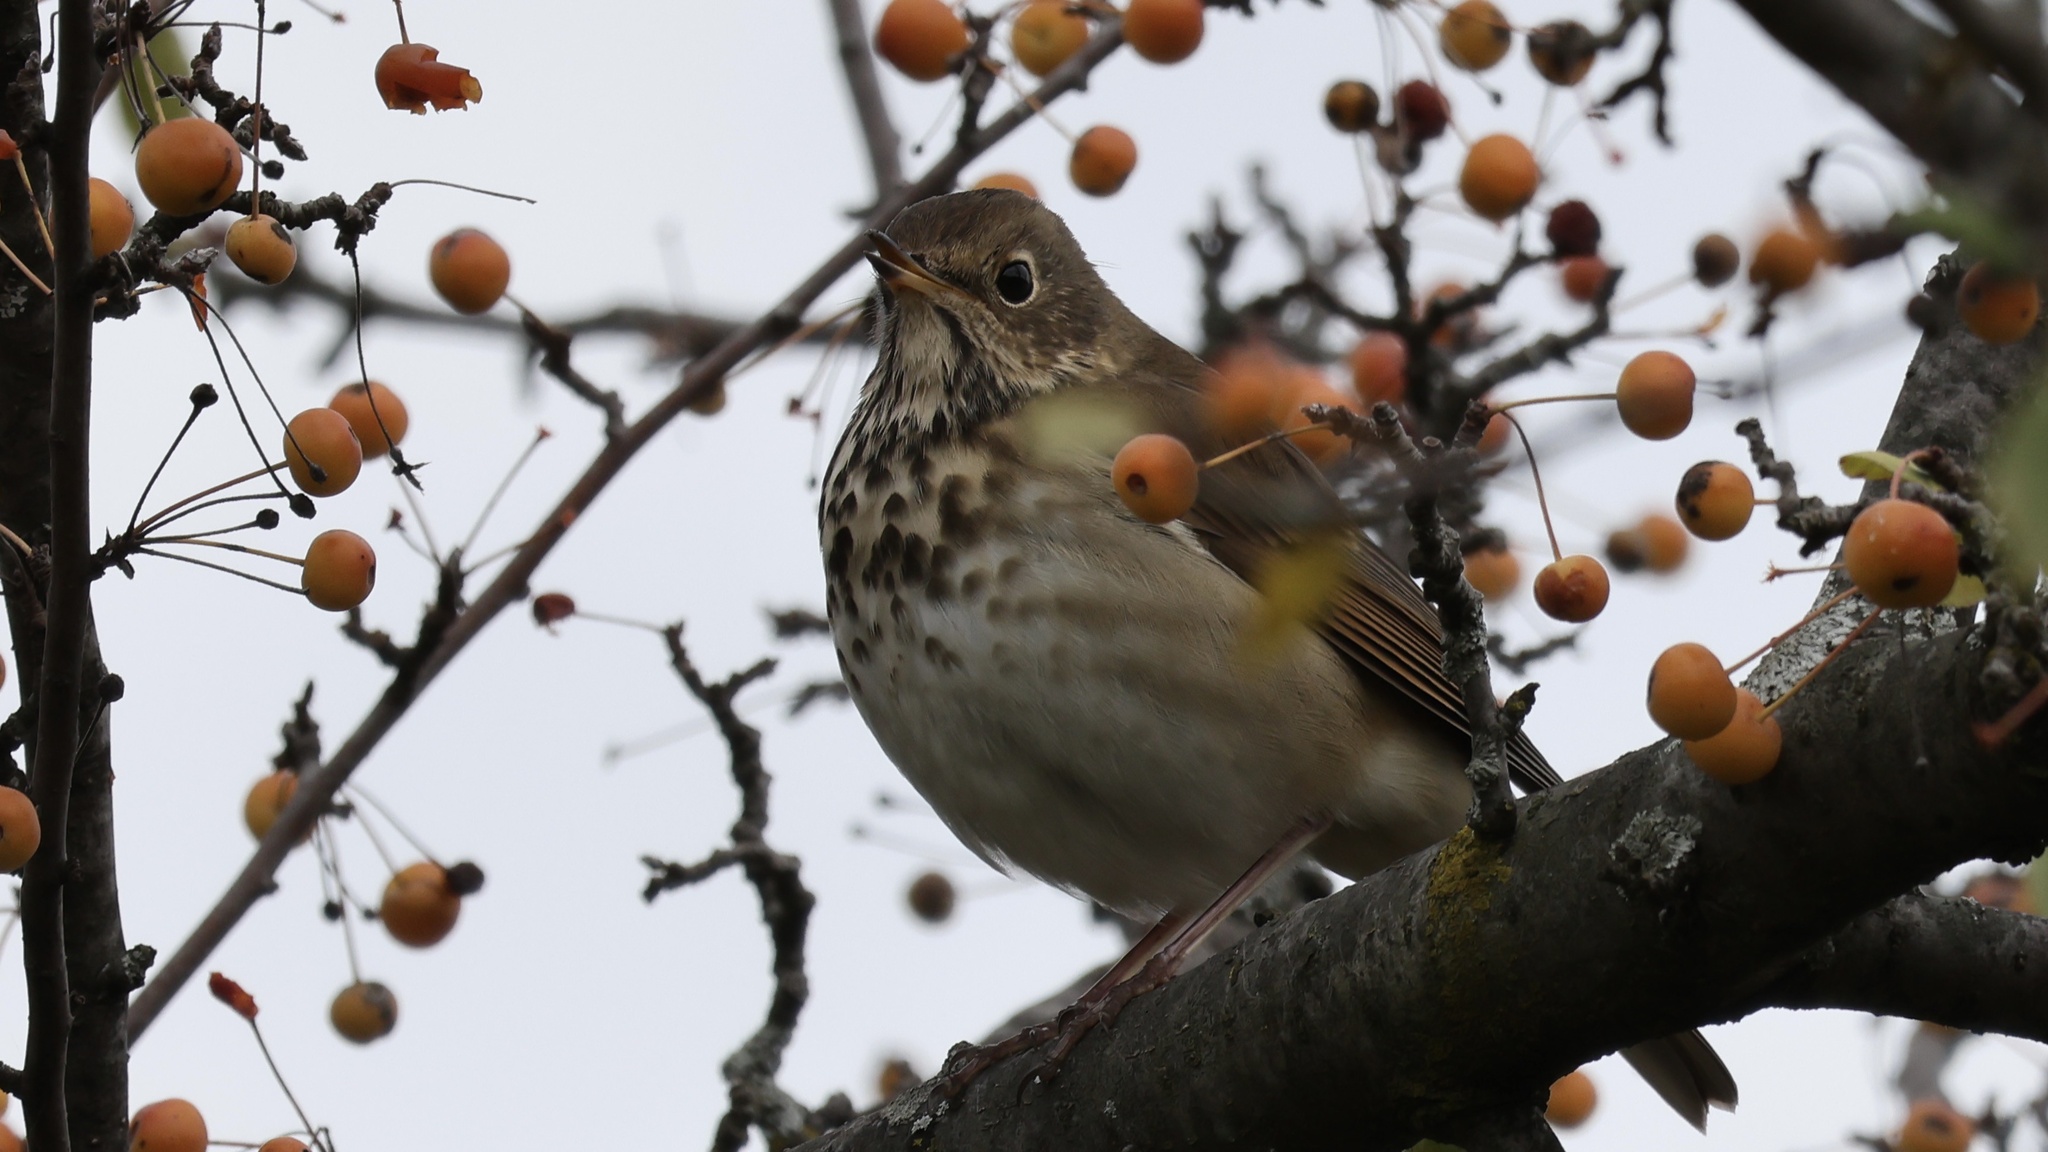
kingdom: Animalia
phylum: Chordata
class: Aves
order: Passeriformes
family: Turdidae
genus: Catharus
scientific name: Catharus guttatus
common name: Hermit thrush
